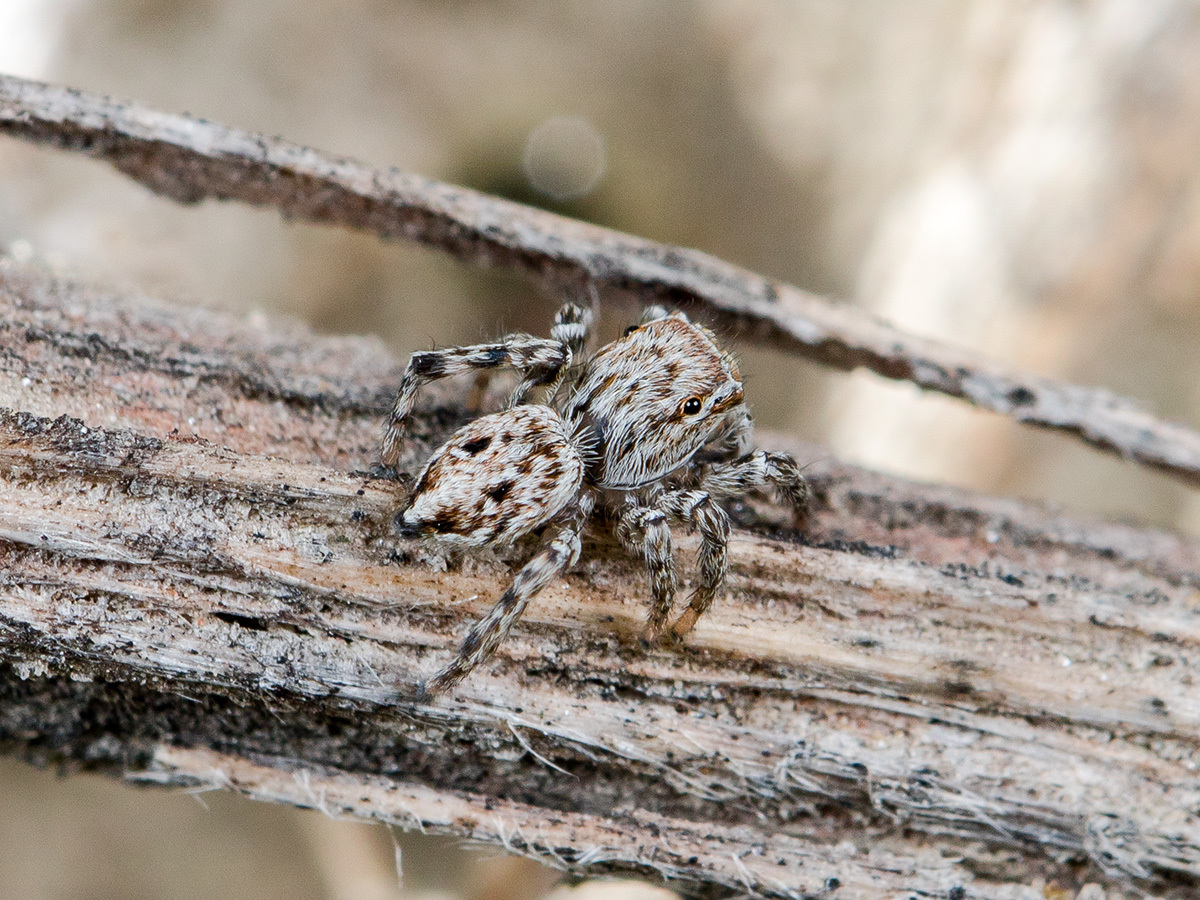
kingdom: Animalia
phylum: Arthropoda
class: Arachnida
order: Araneae
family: Salticidae
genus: Attulus
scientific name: Attulus nenilini
